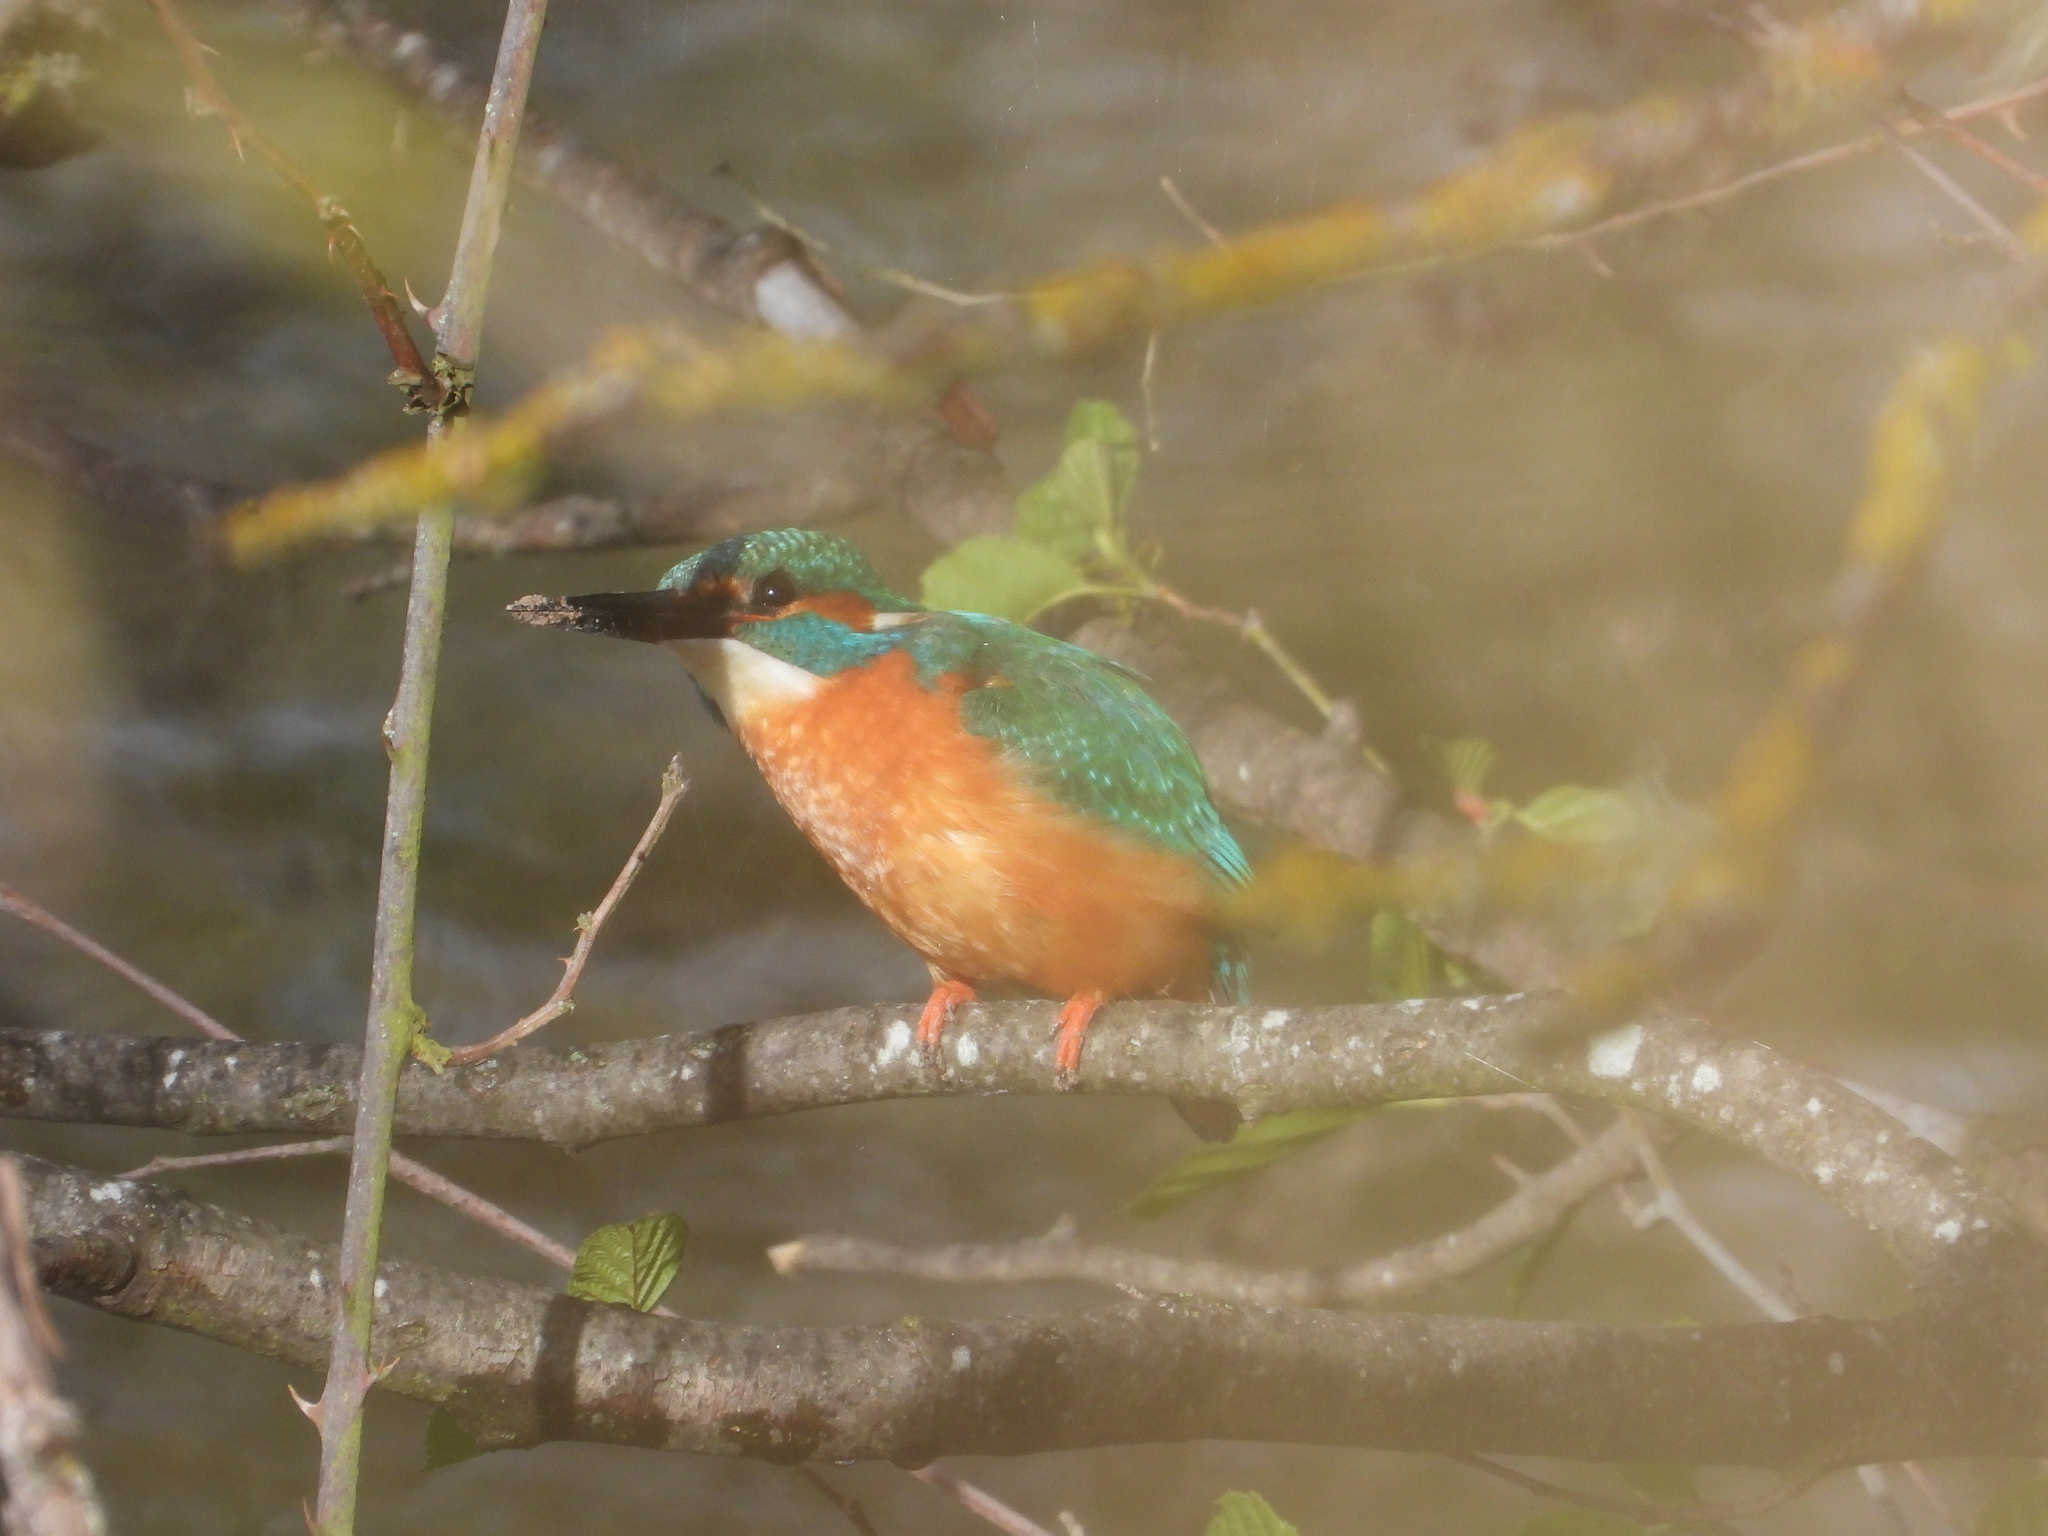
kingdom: Animalia
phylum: Chordata
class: Aves
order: Coraciiformes
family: Alcedinidae
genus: Alcedo
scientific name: Alcedo atthis
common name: Common kingfisher
